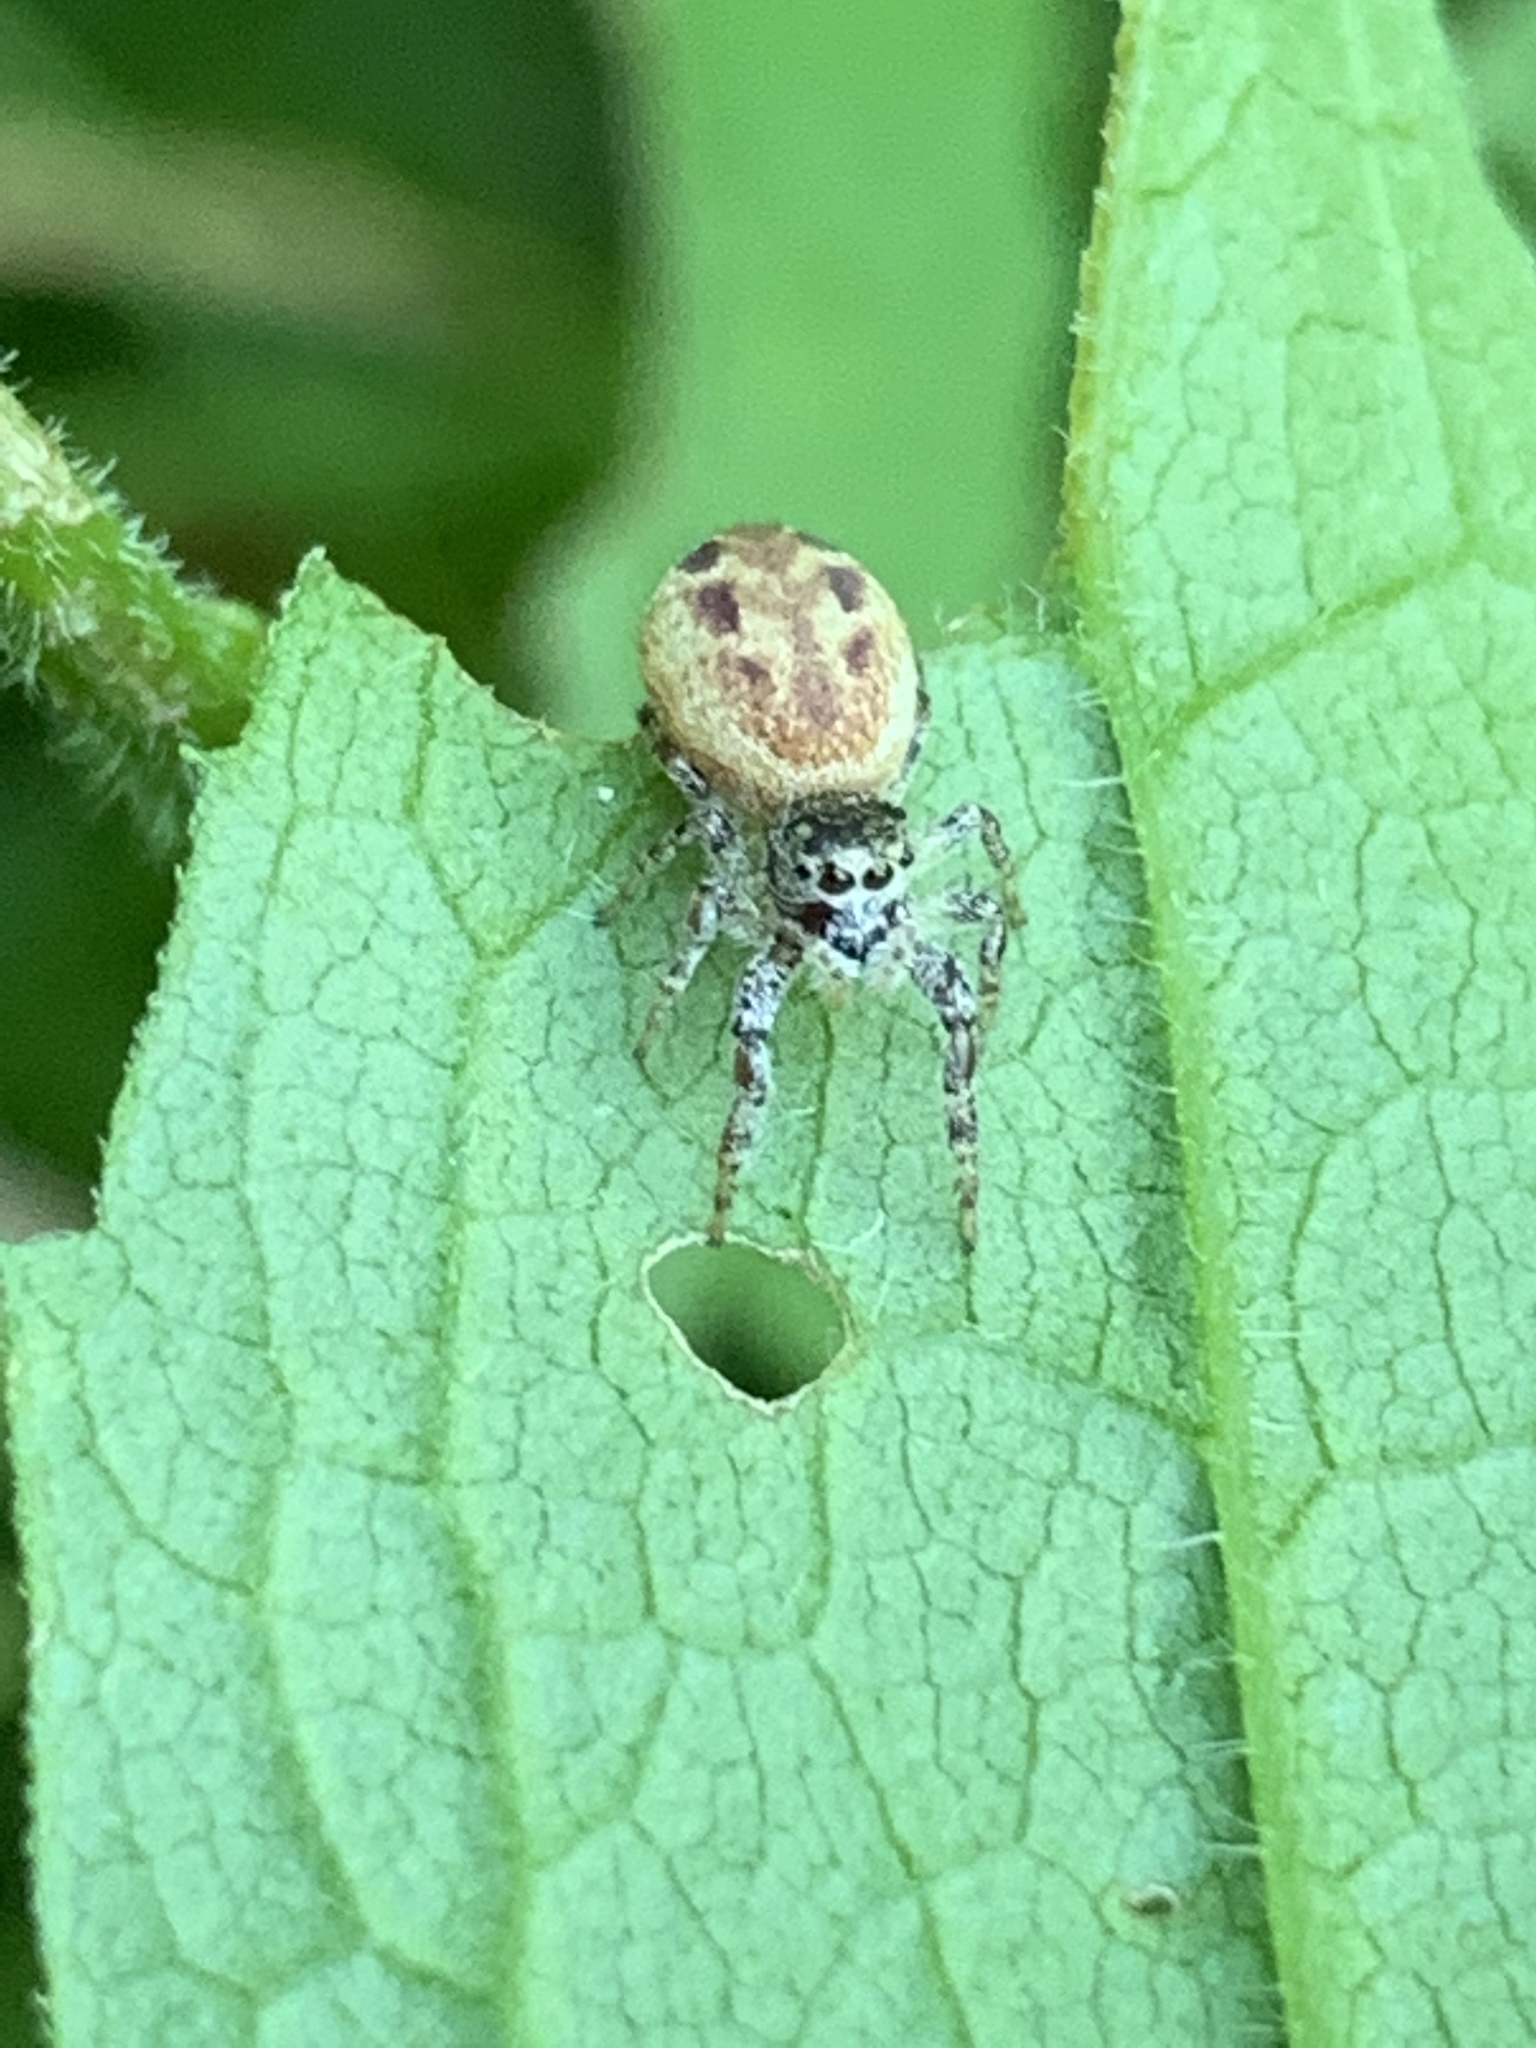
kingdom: Animalia
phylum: Arthropoda
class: Arachnida
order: Araneae
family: Salticidae
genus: Pelegrina
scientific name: Pelegrina proterva
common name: Common white-cheeked jumping spider
